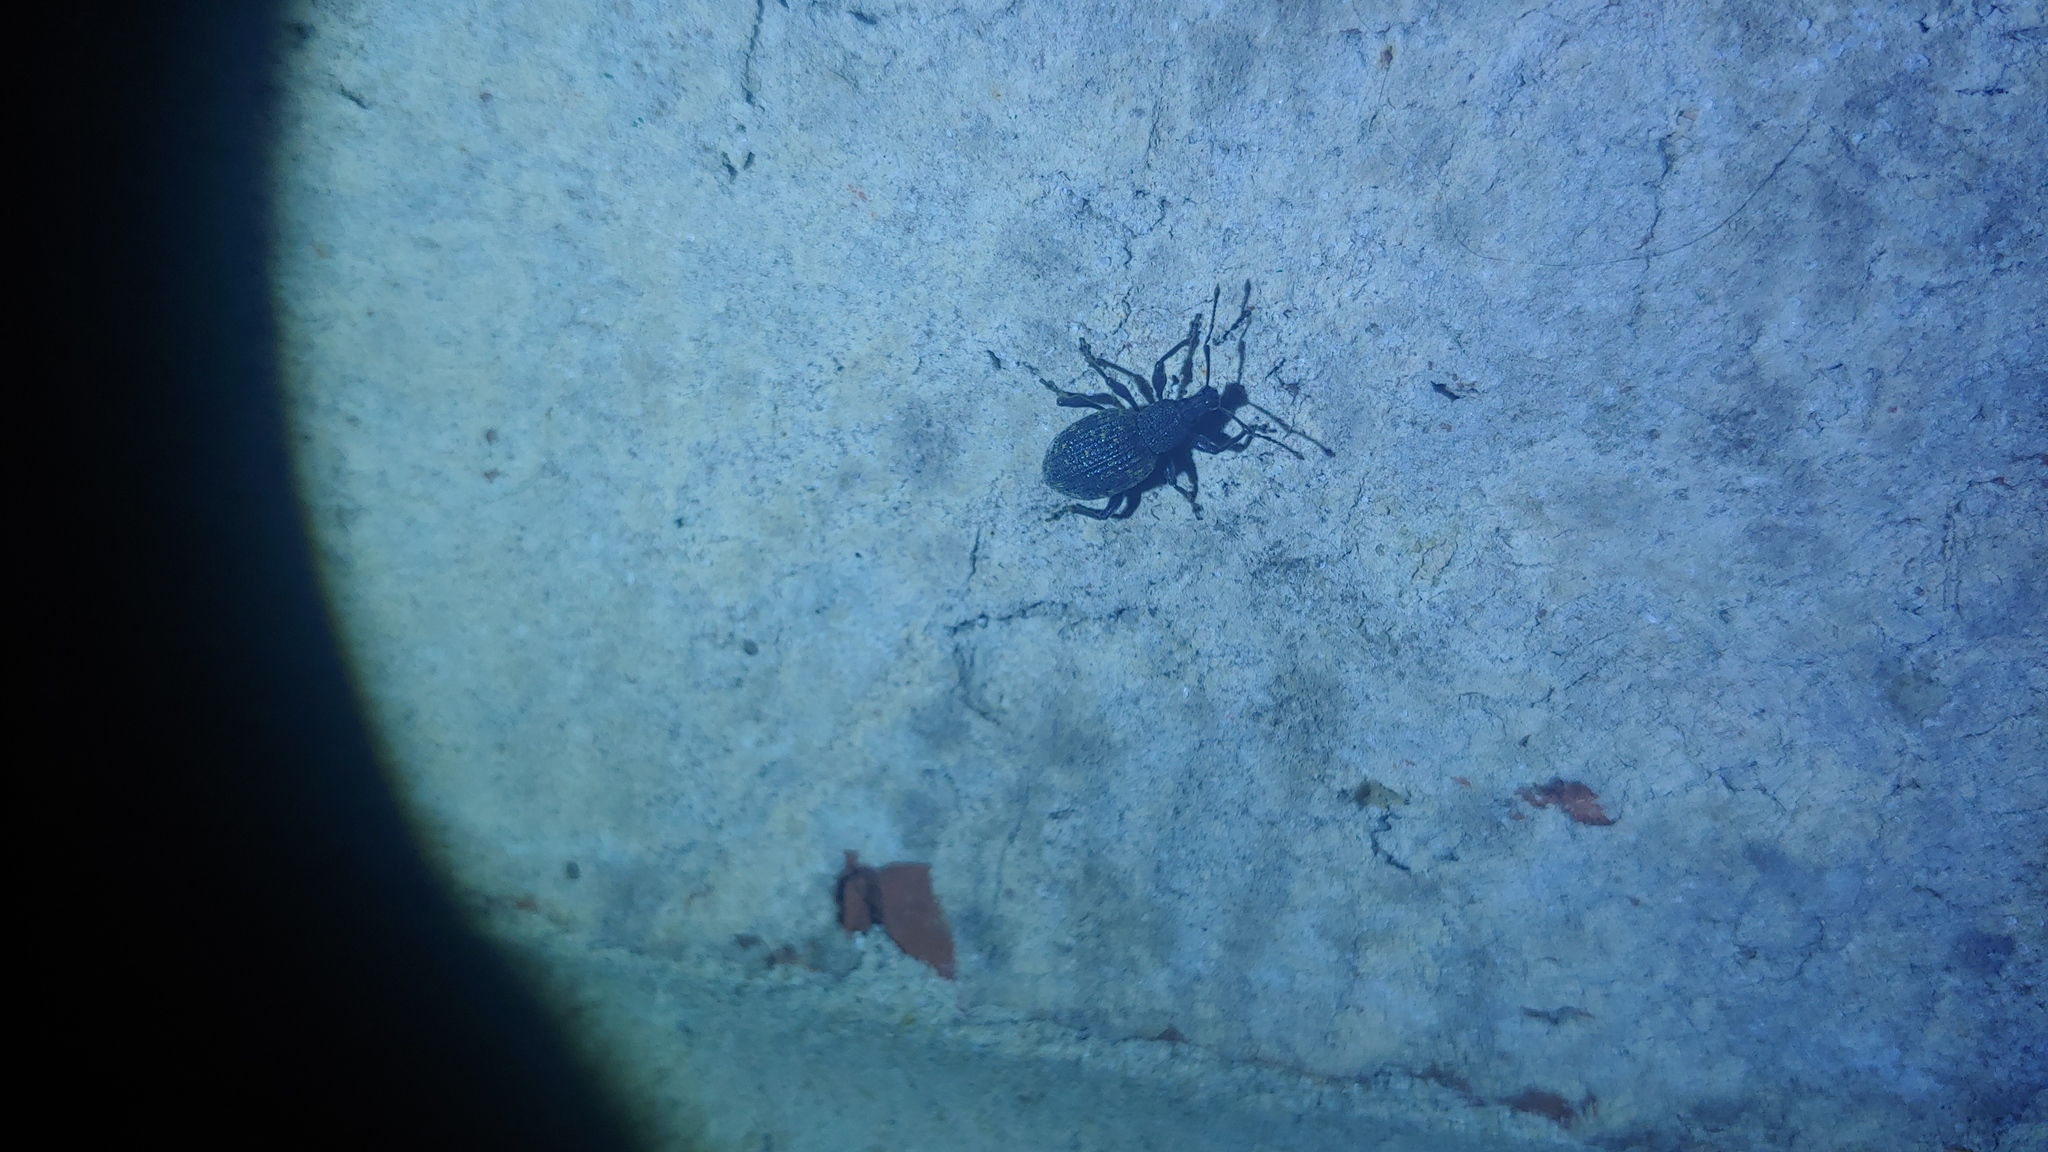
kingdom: Animalia
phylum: Arthropoda
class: Insecta
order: Coleoptera
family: Curculionidae
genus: Otiorhynchus
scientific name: Otiorhynchus sulcatus
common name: Black vine weevil
